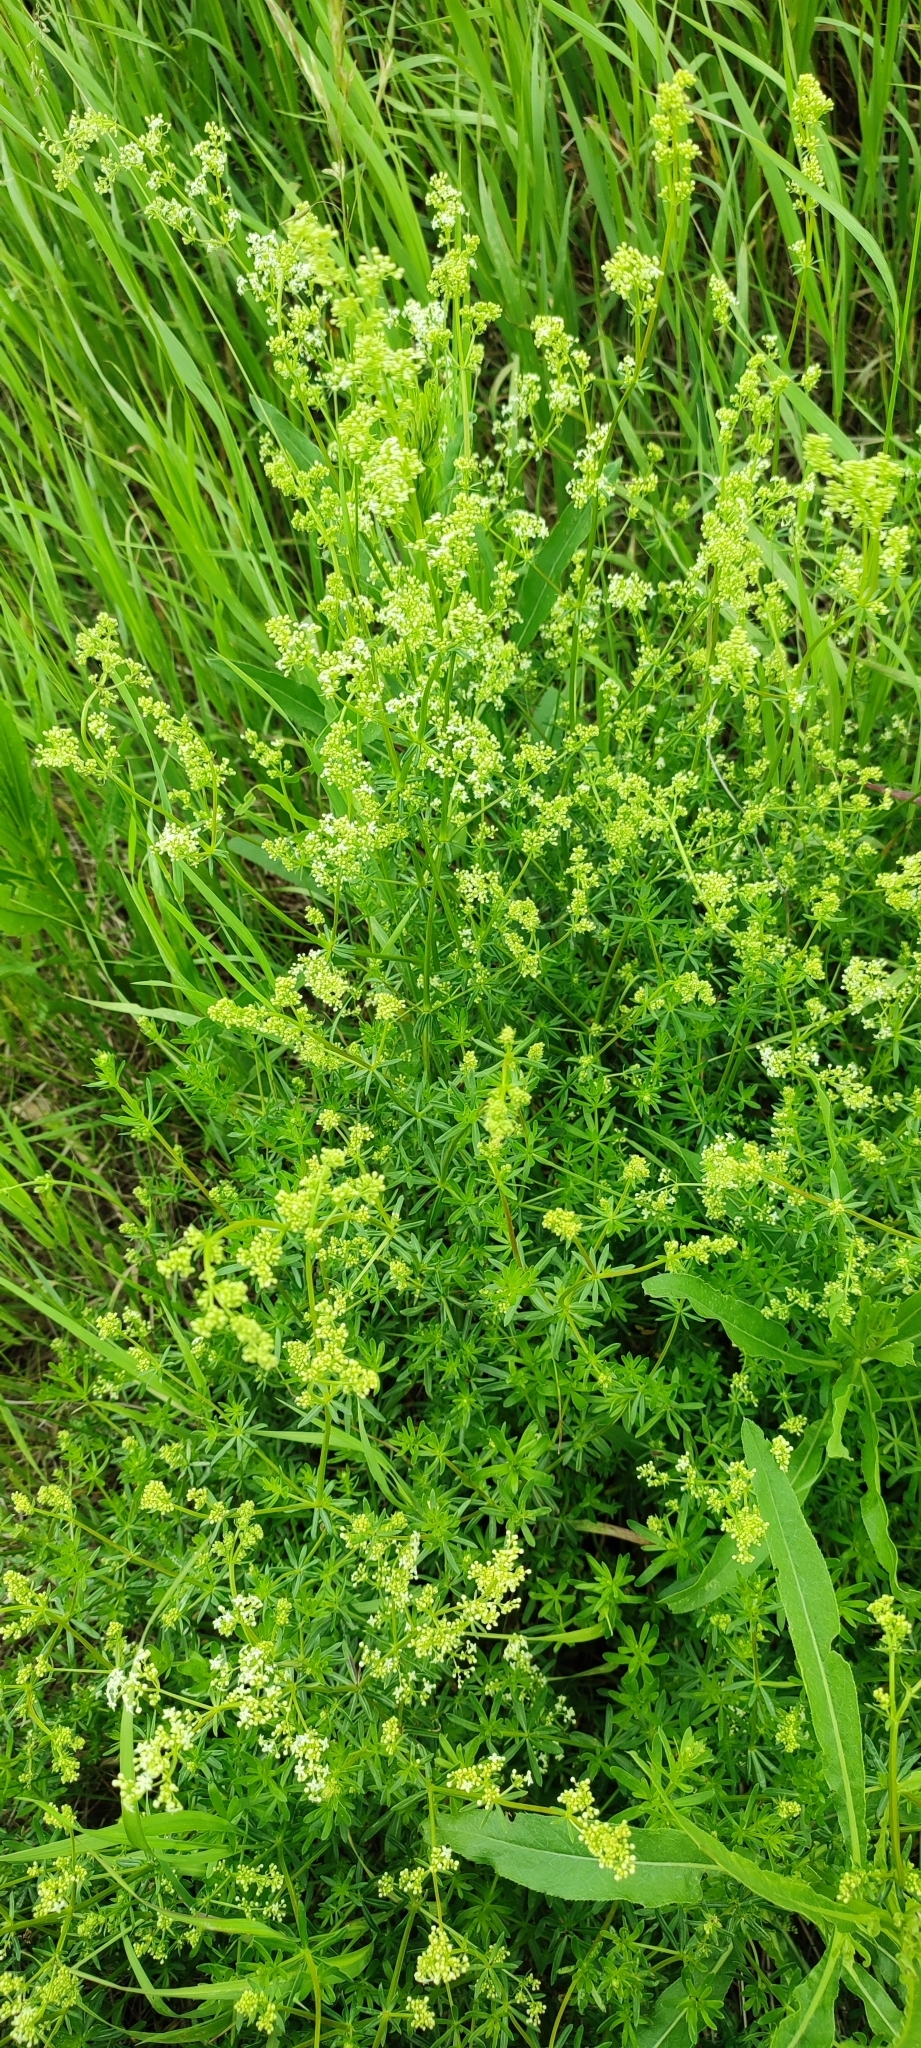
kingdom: Plantae
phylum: Tracheophyta
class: Magnoliopsida
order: Gentianales
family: Rubiaceae
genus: Galium
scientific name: Galium mollugo
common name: Hedge bedstraw
